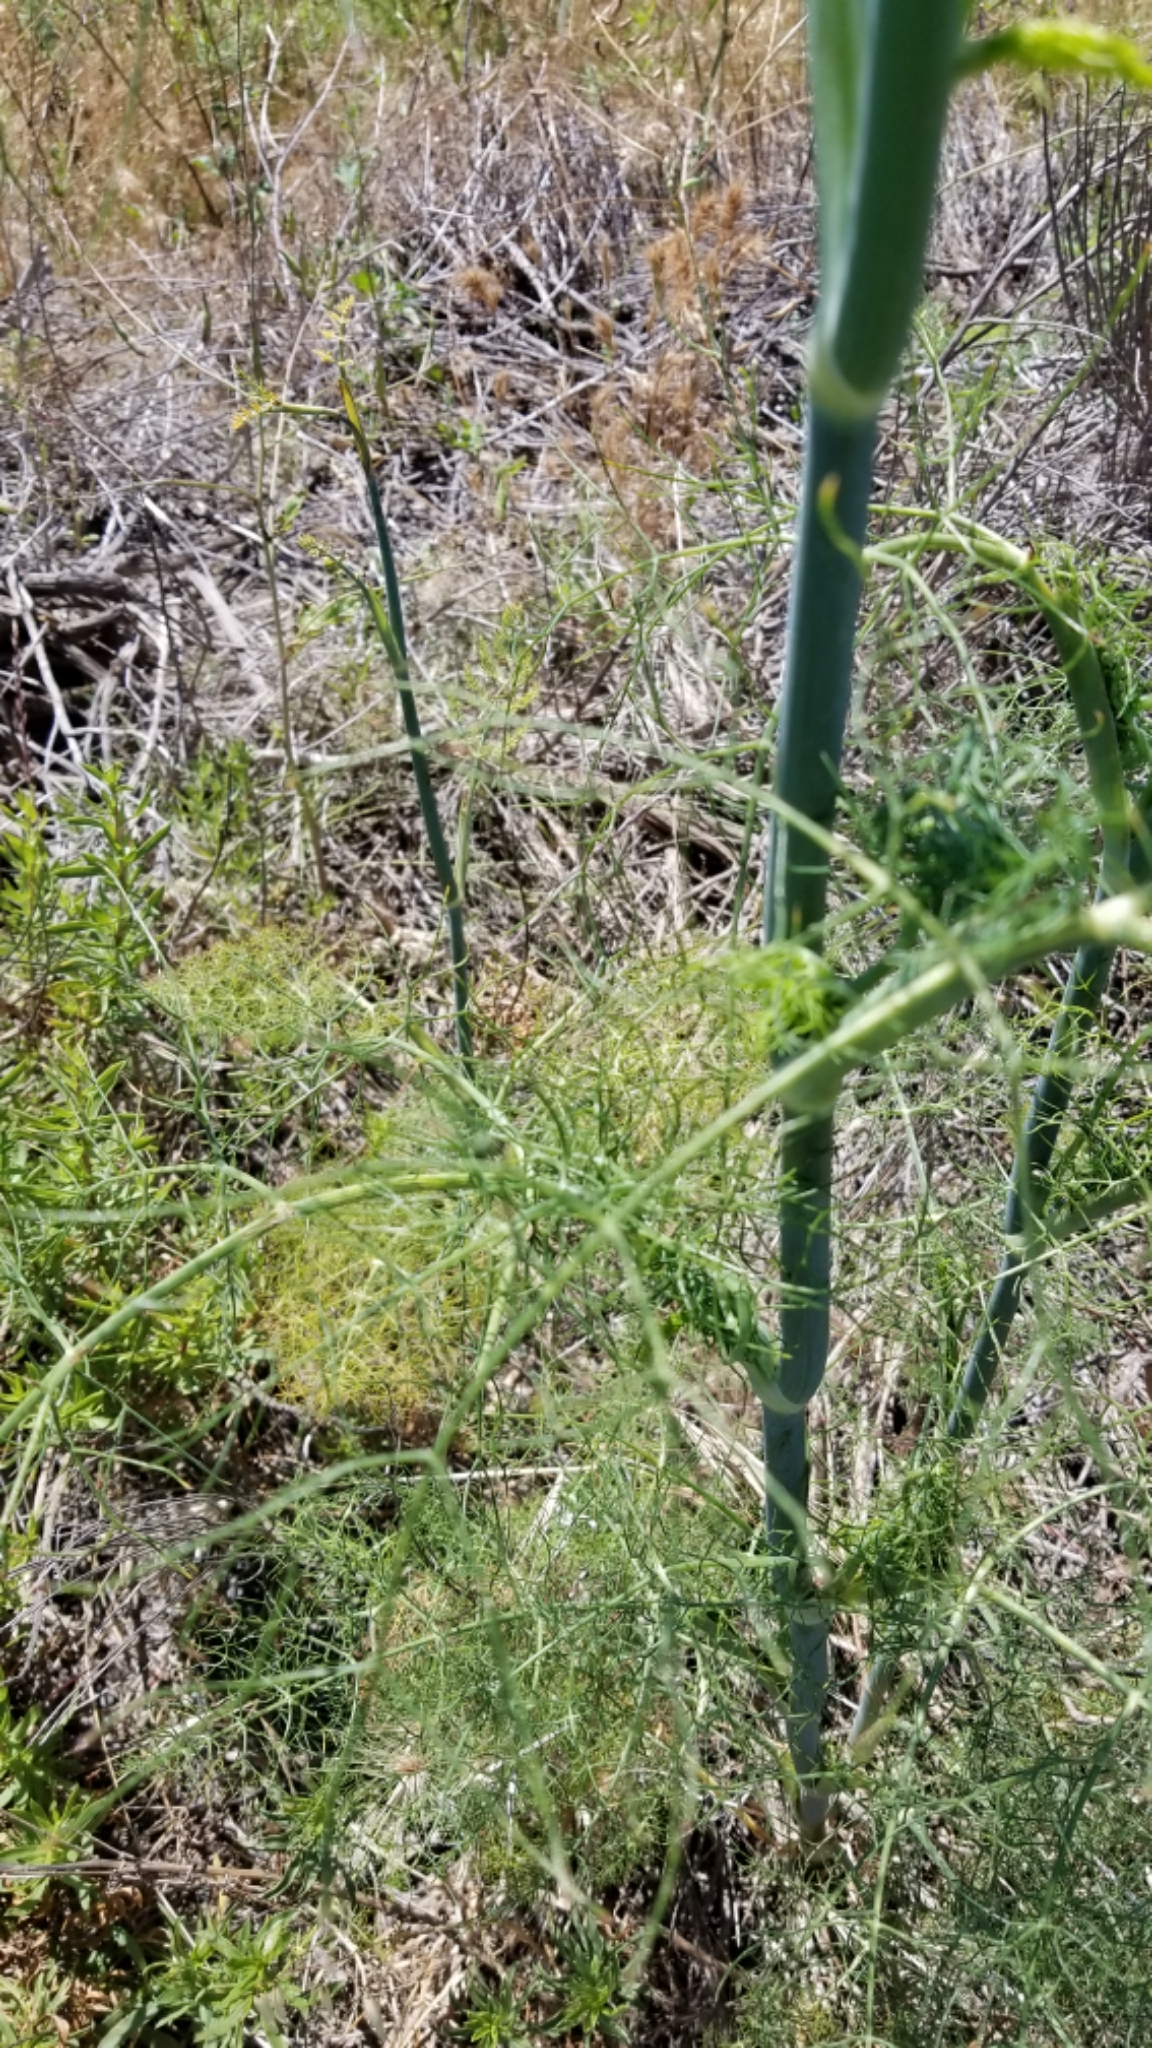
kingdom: Plantae
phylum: Tracheophyta
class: Magnoliopsida
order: Apiales
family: Apiaceae
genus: Foeniculum
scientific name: Foeniculum vulgare
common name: Fennel
